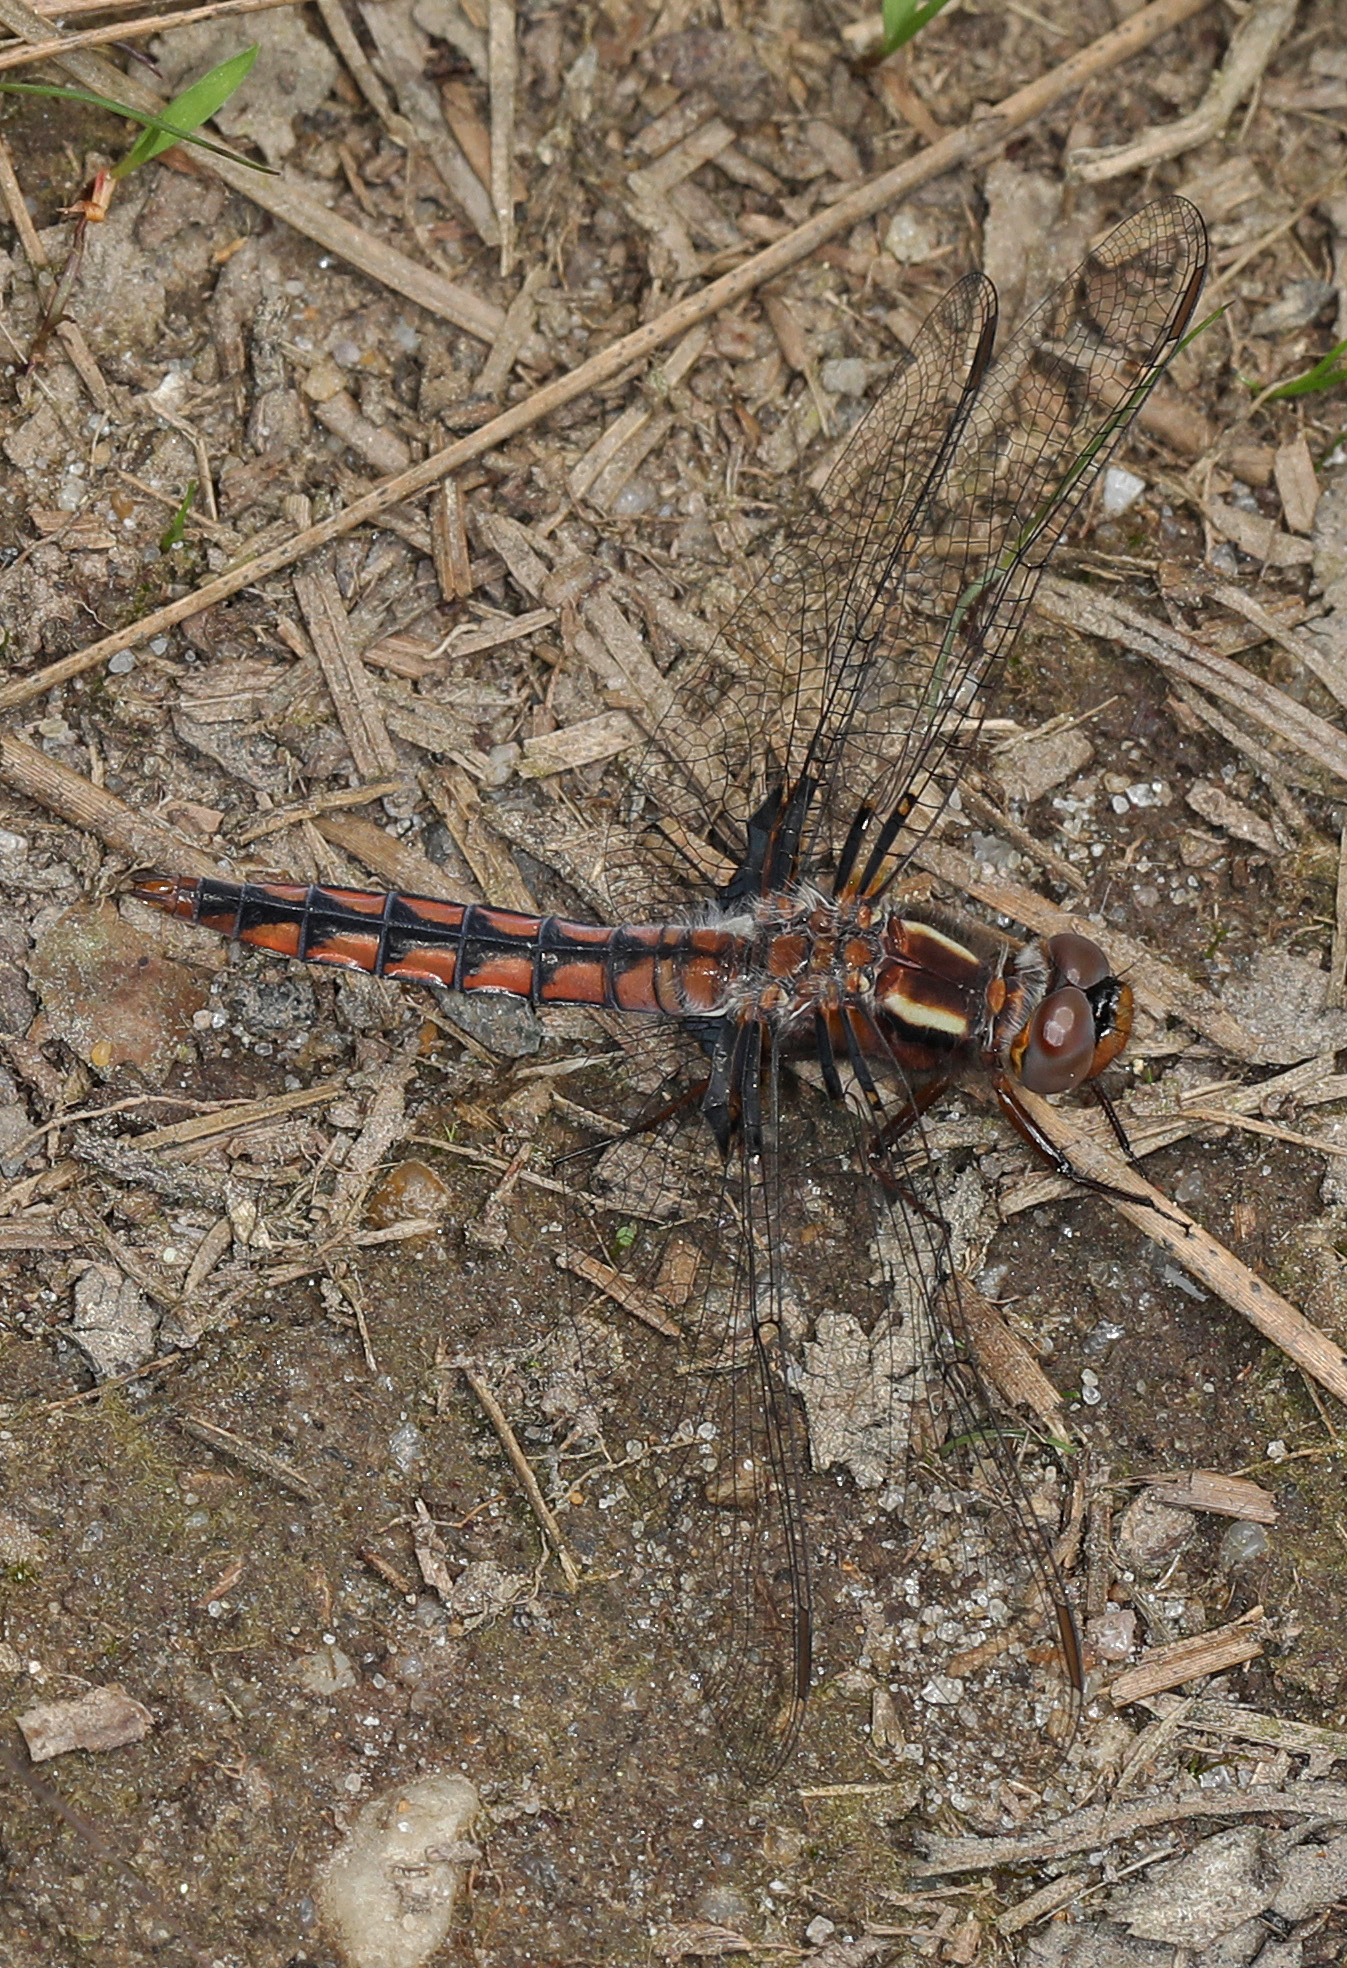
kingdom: Animalia
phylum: Arthropoda
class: Insecta
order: Odonata
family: Libellulidae
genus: Ladona
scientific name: Ladona deplanata
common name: Blue corporal
